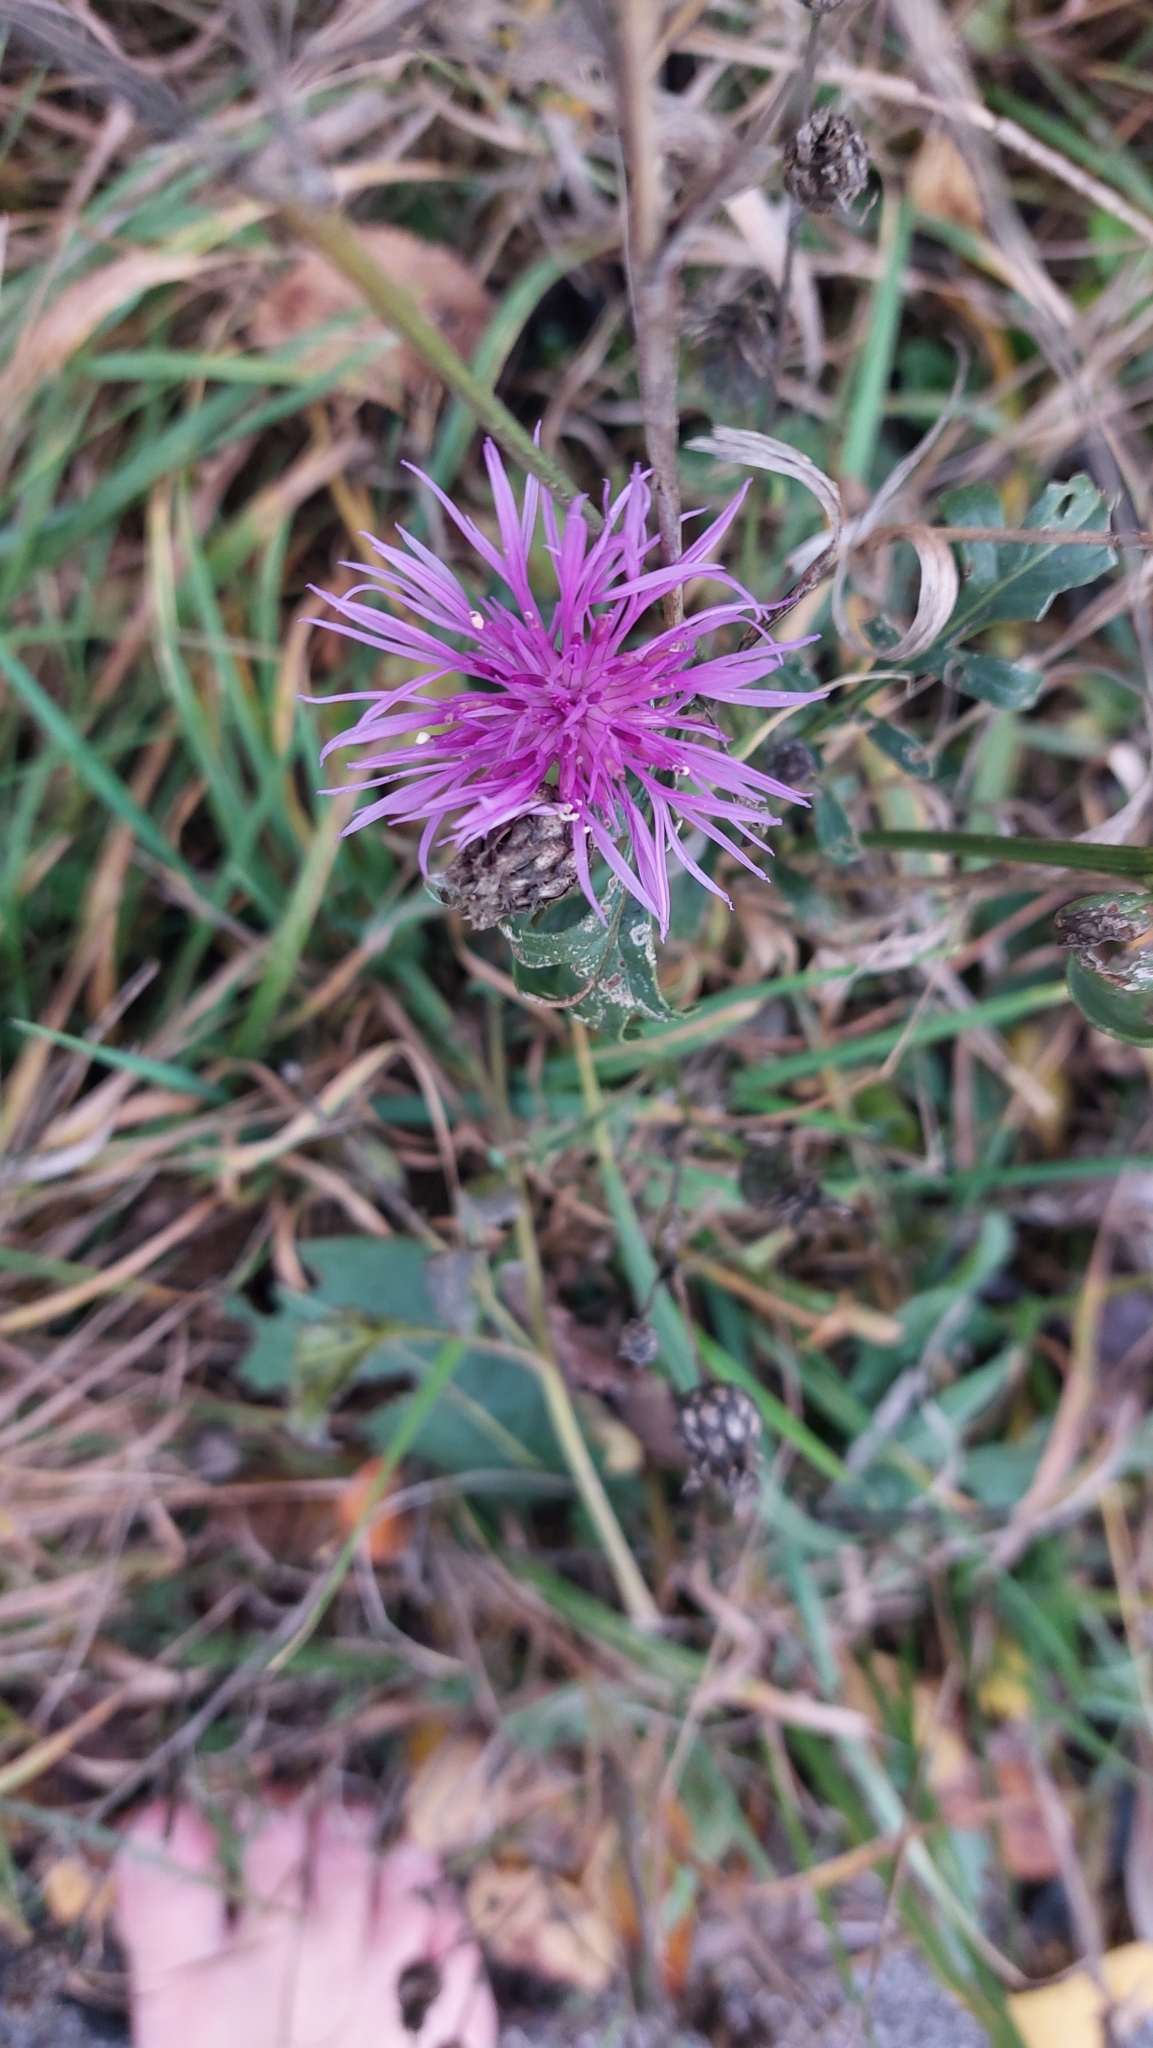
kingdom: Plantae
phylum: Tracheophyta
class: Magnoliopsida
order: Asterales
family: Asteraceae
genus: Centaurea
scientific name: Centaurea scabiosa
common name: Greater knapweed
